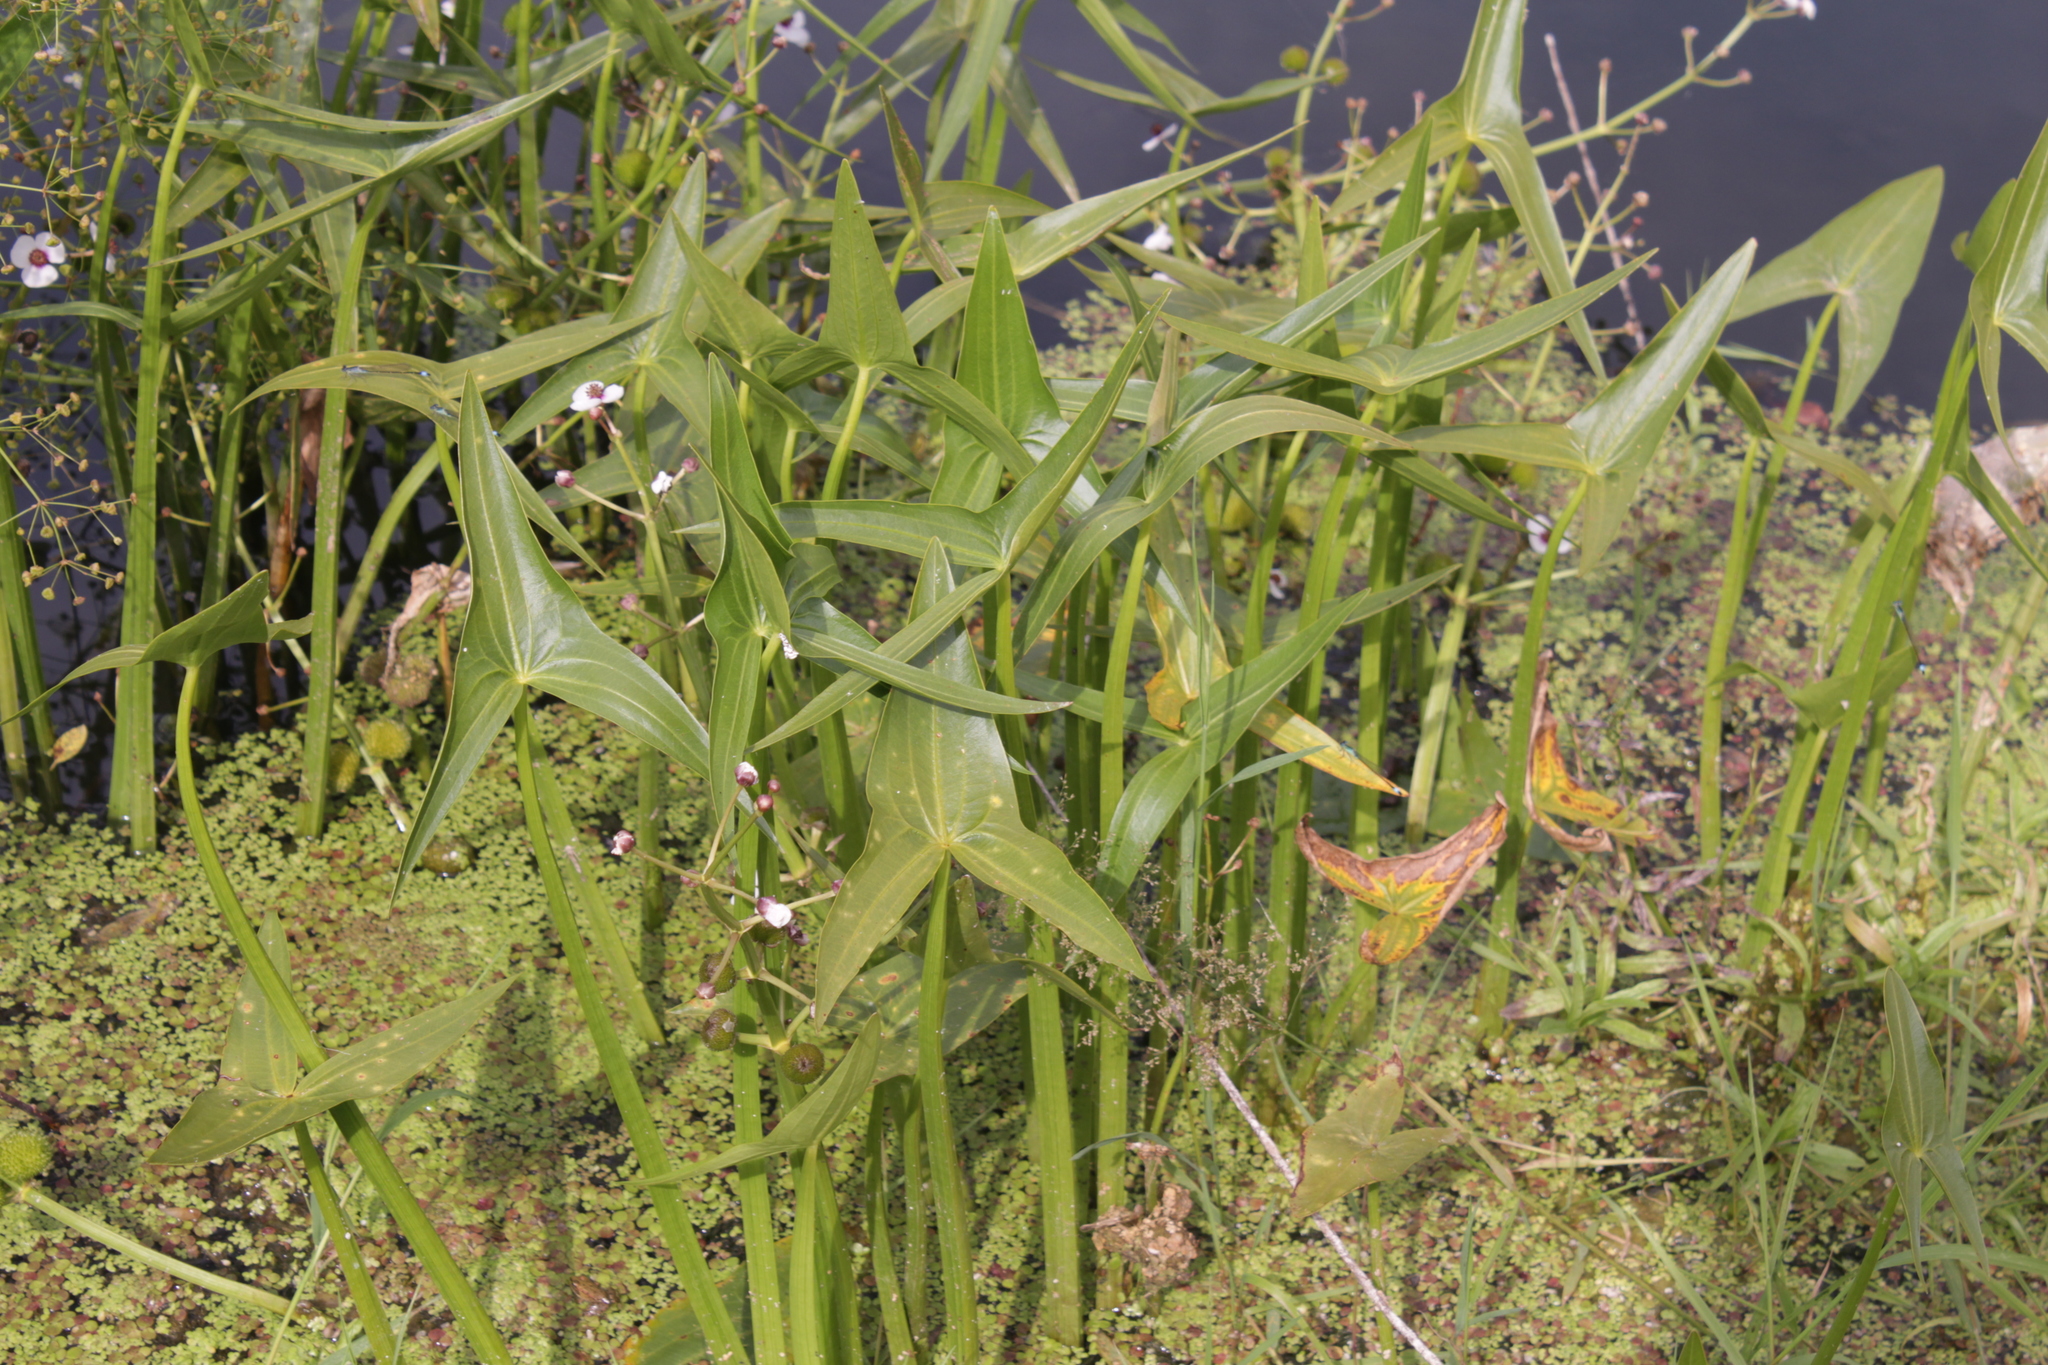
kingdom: Plantae
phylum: Tracheophyta
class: Liliopsida
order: Alismatales
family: Alismataceae
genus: Sagittaria
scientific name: Sagittaria sagittifolia
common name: Arrowhead
